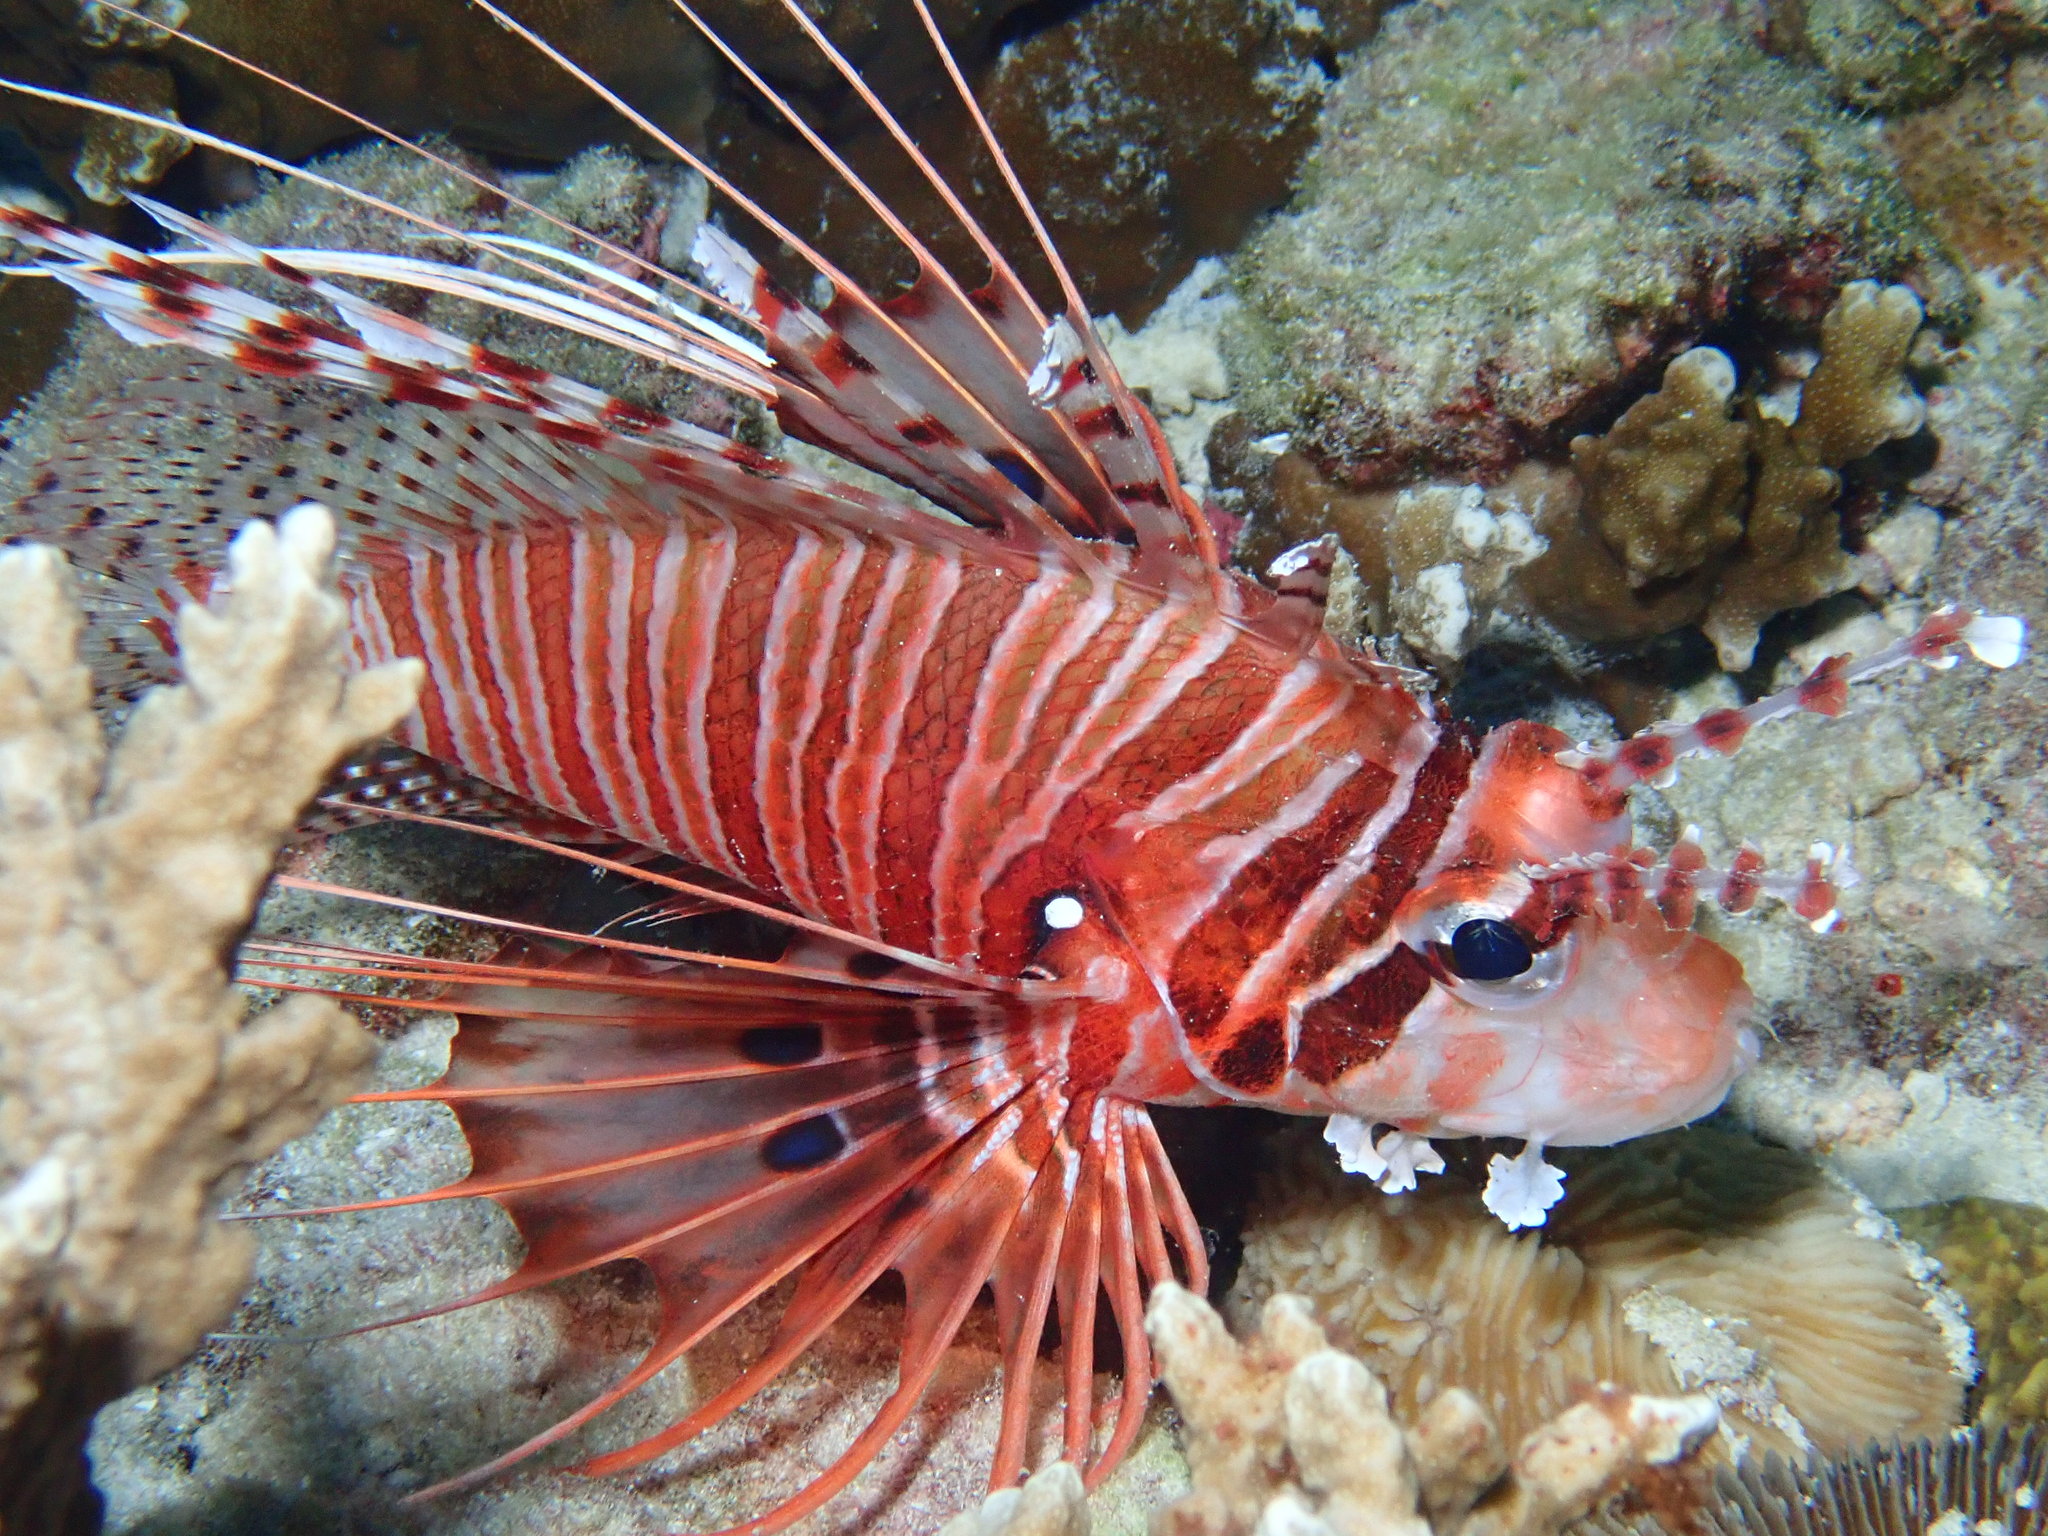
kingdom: Animalia
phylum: Chordata
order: Scorpaeniformes
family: Scorpaenidae
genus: Pterois
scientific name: Pterois antennata
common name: Spotfin lionfish
